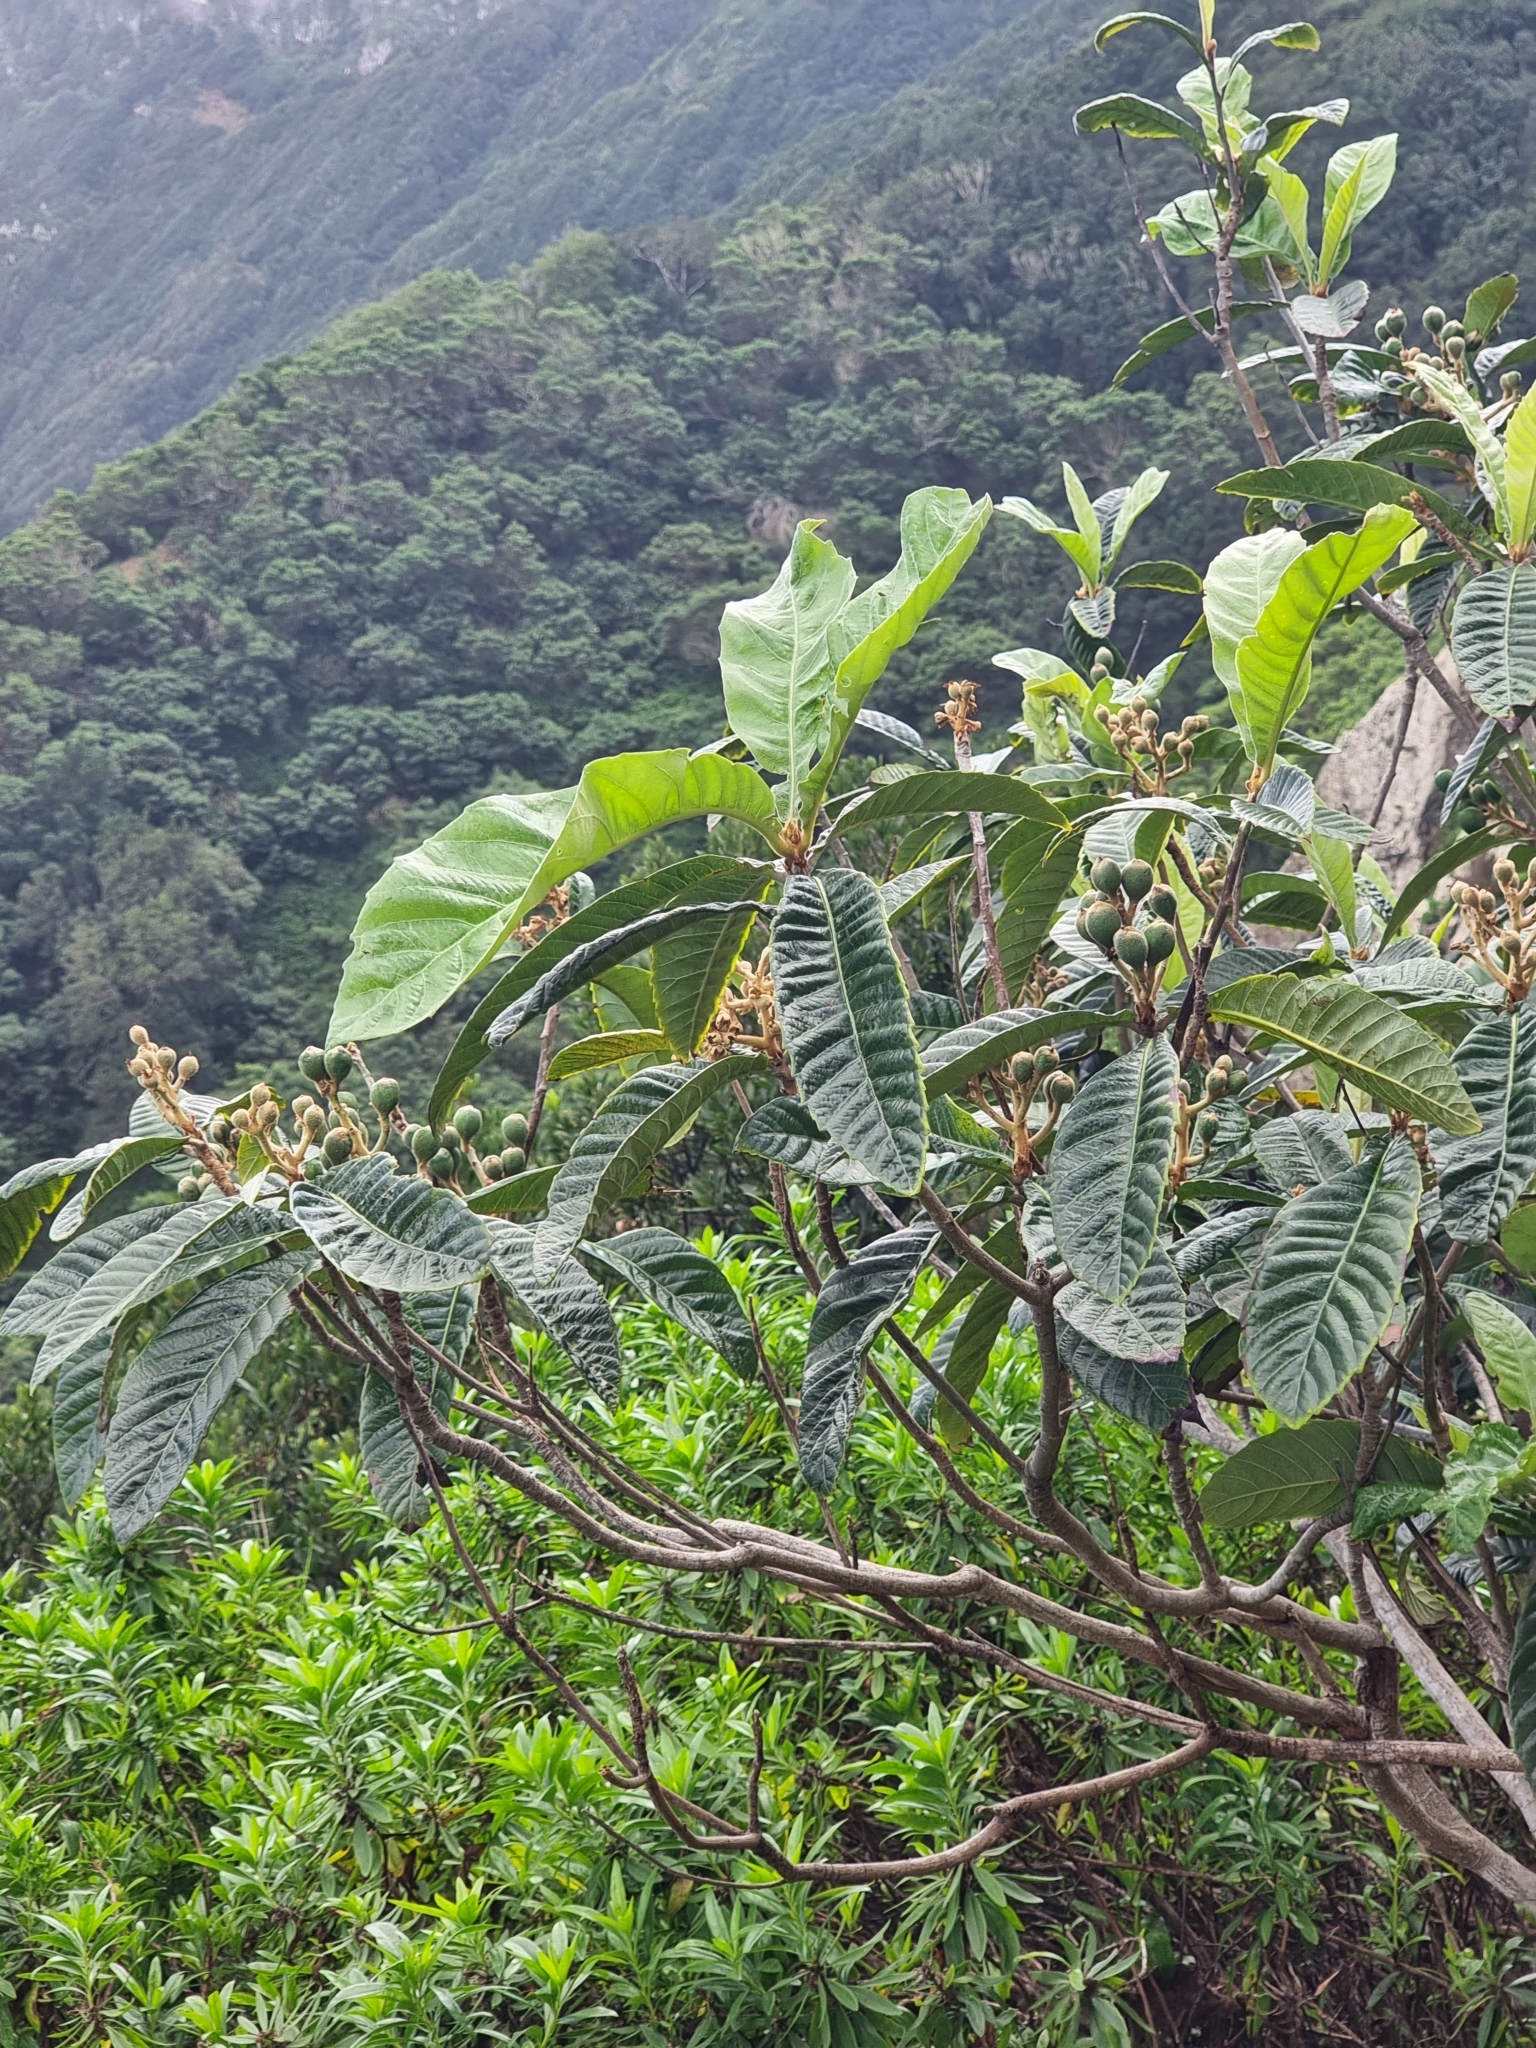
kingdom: Plantae
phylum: Tracheophyta
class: Magnoliopsida
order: Rosales
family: Rosaceae
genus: Rhaphiolepis
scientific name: Rhaphiolepis bibas
